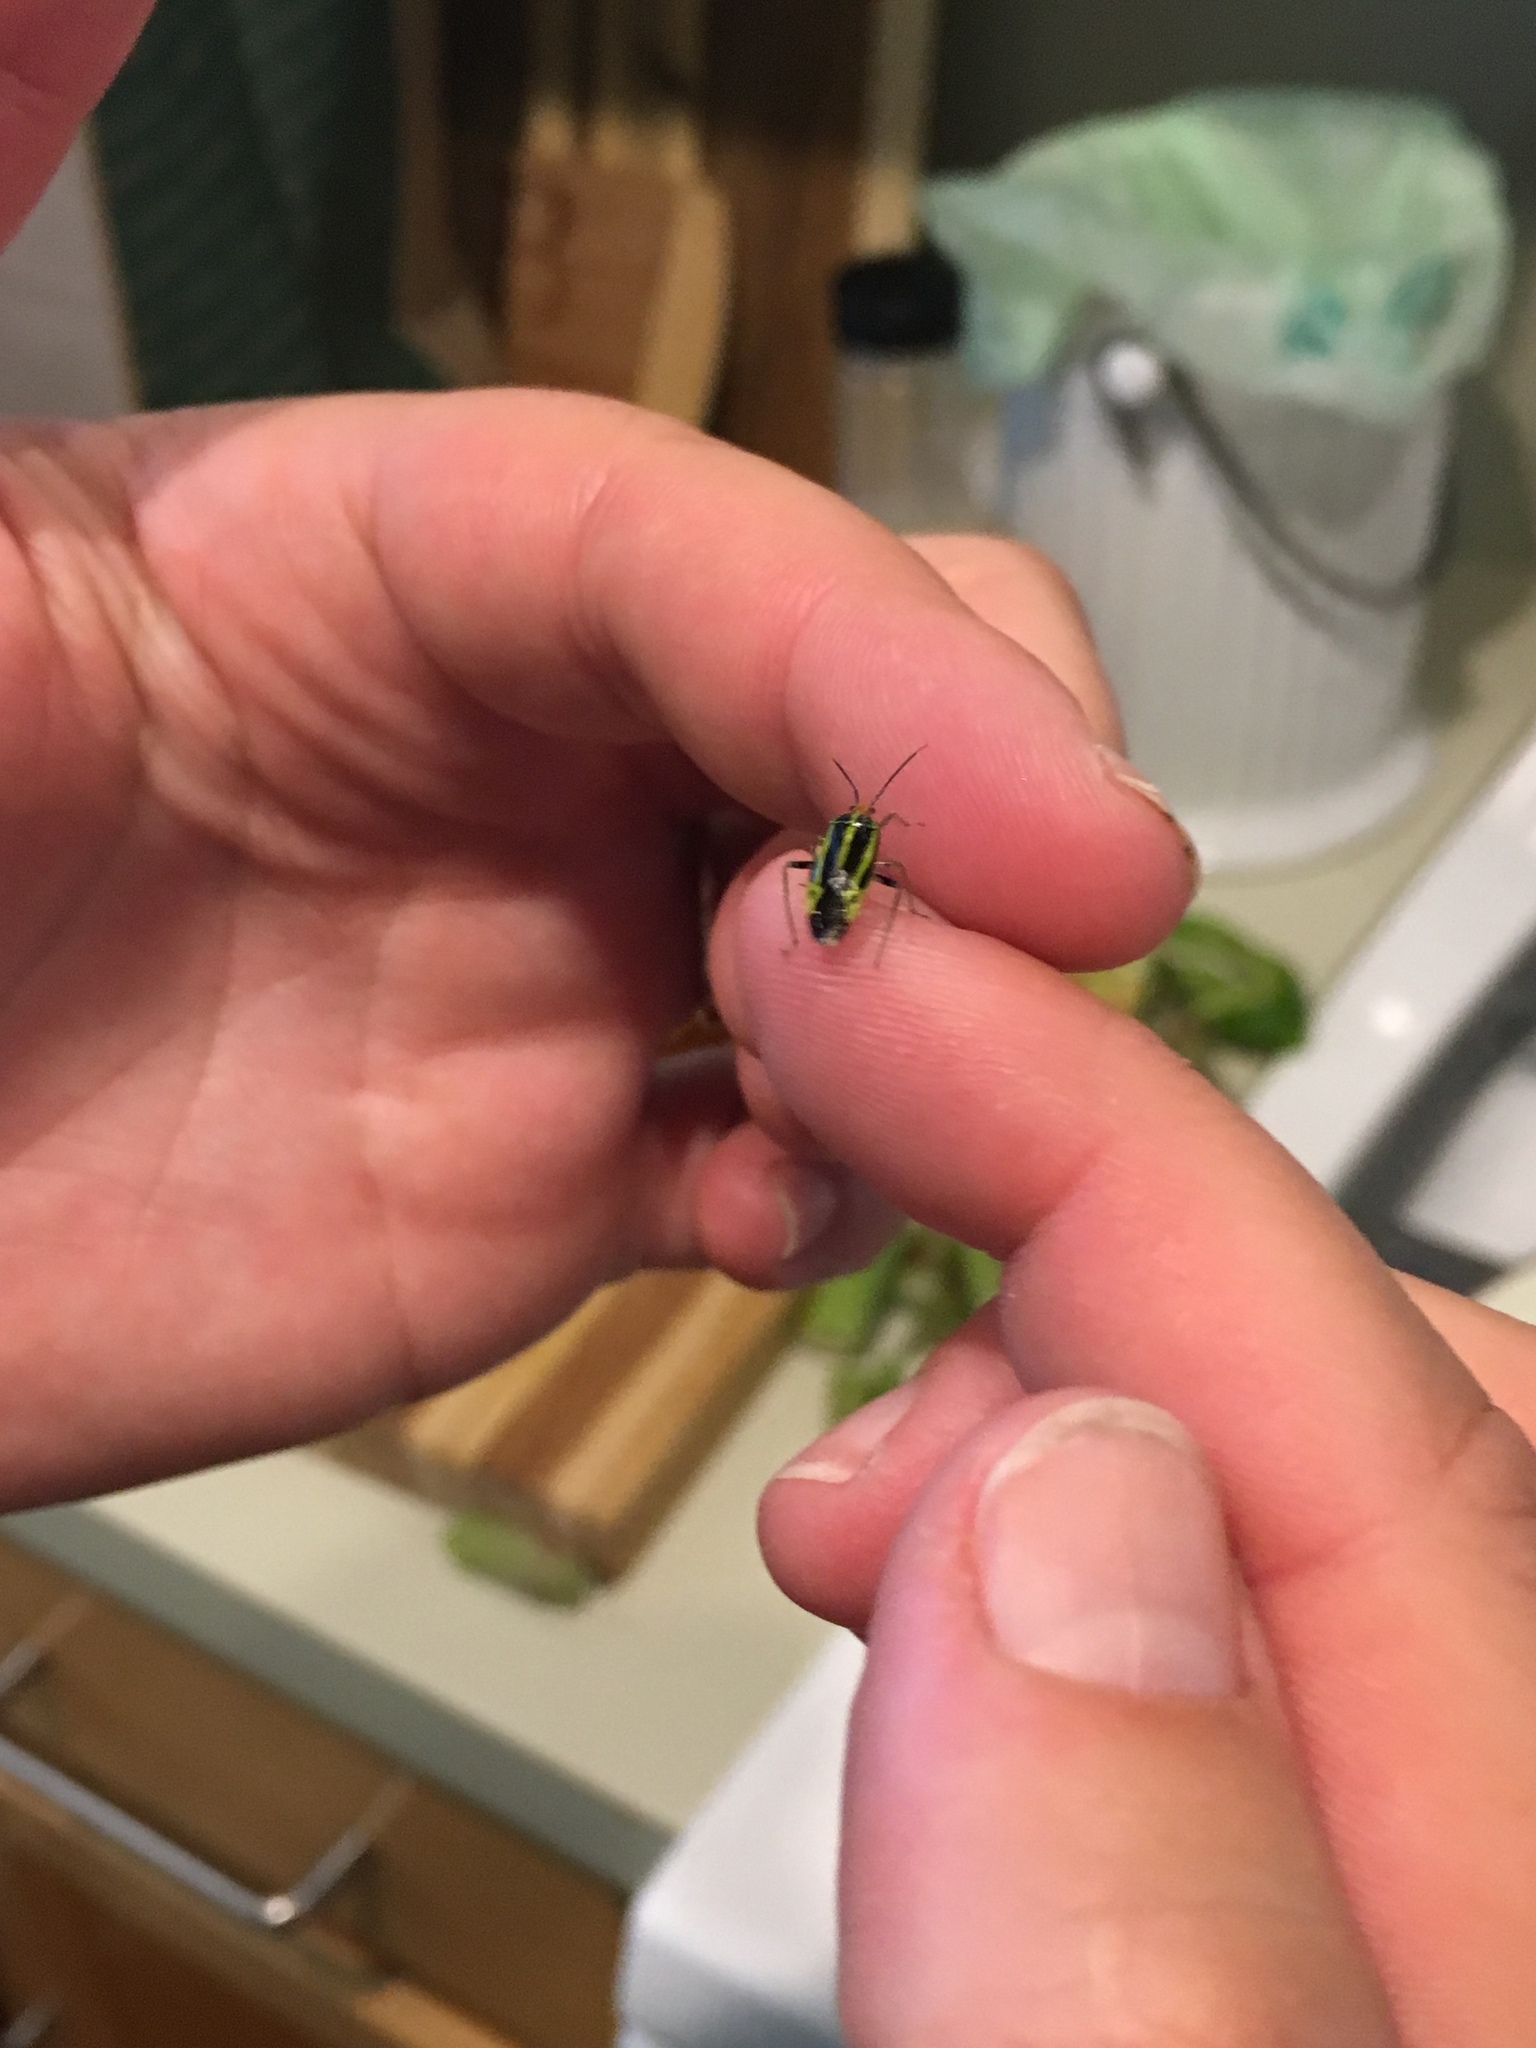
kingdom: Animalia
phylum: Arthropoda
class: Insecta
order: Hemiptera
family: Miridae
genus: Poecilocapsus
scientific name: Poecilocapsus lineatus
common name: Four-lined plant bug
